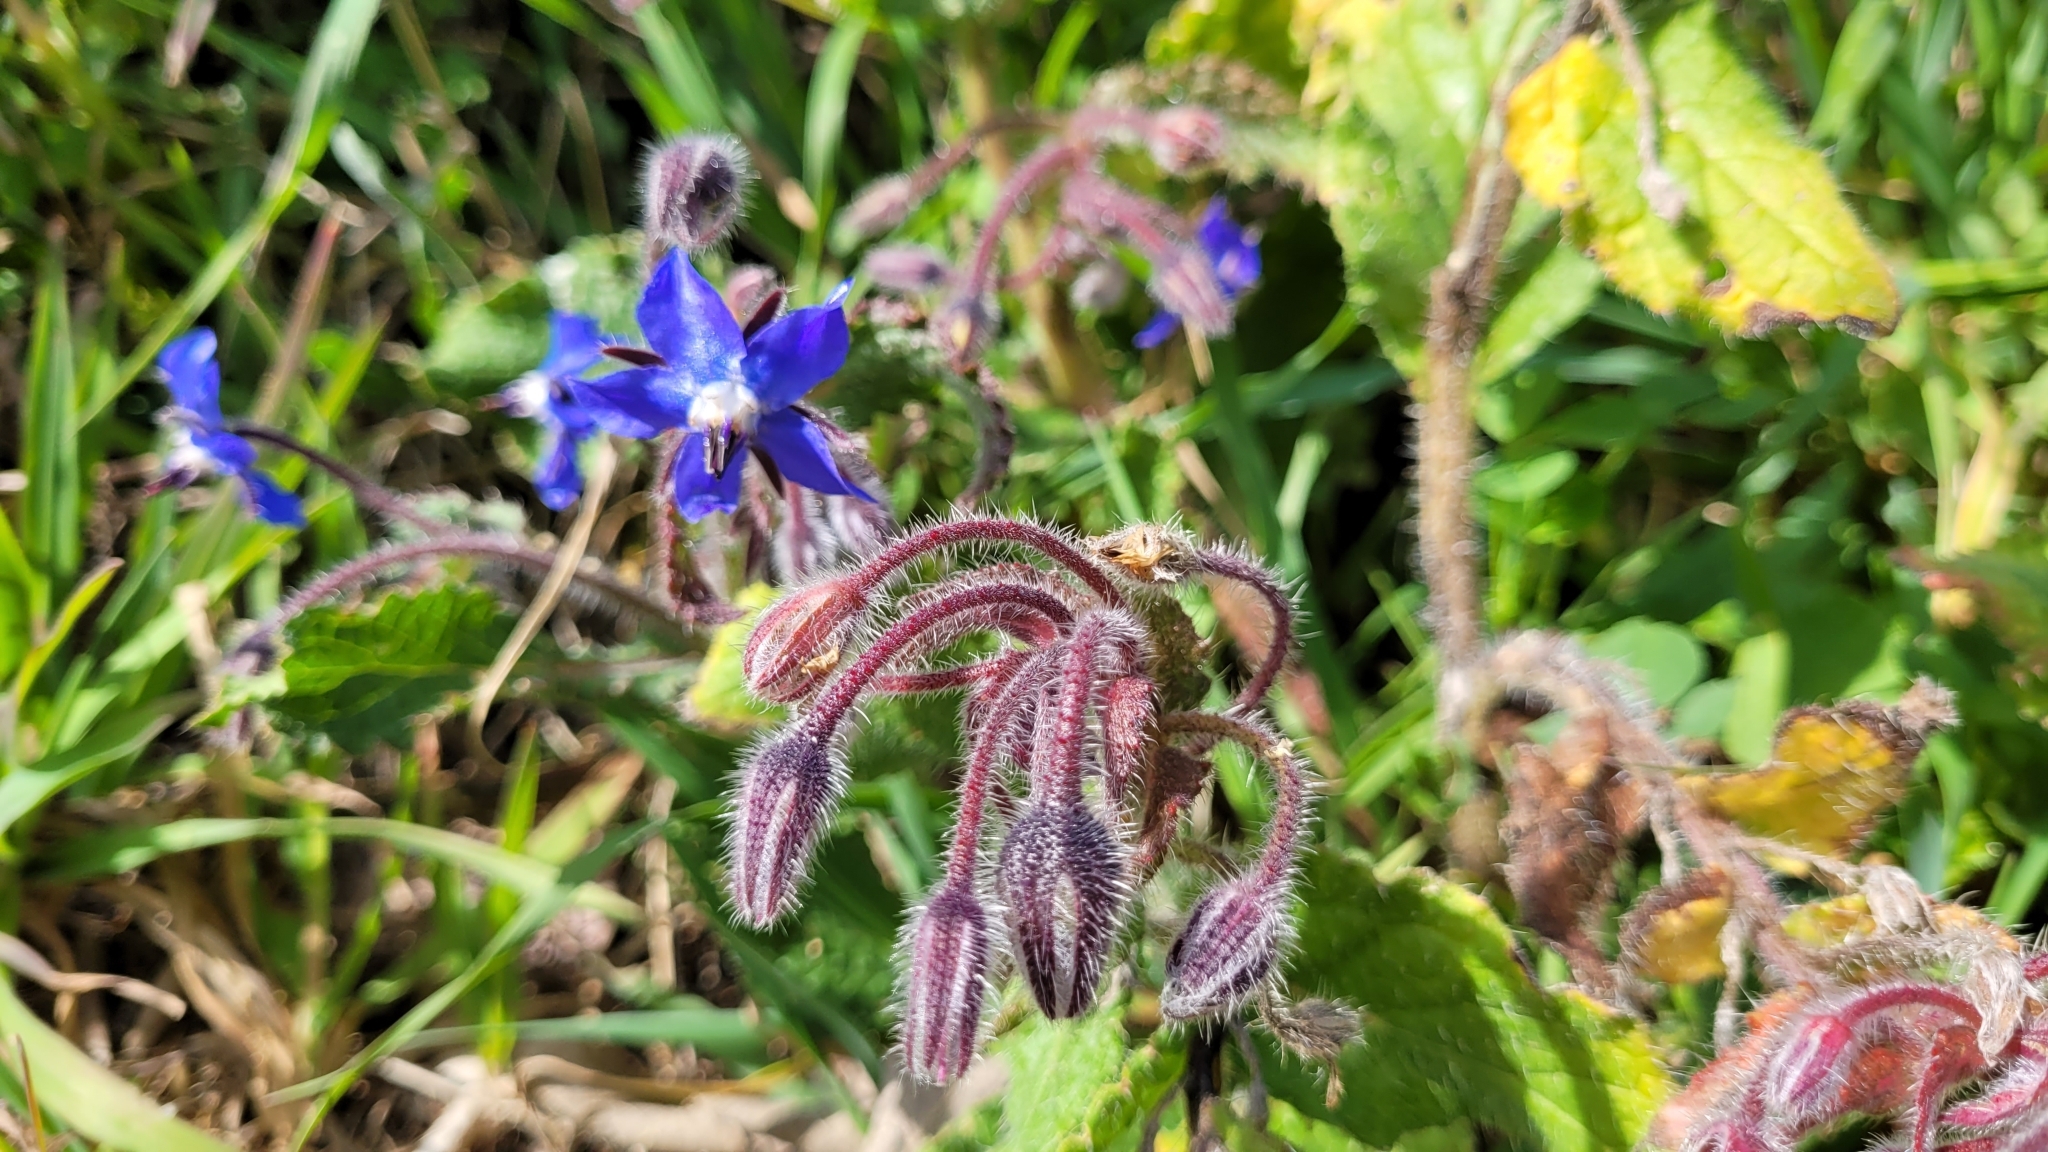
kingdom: Plantae
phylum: Tracheophyta
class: Magnoliopsida
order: Boraginales
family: Boraginaceae
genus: Borago
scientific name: Borago officinalis
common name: Borage
